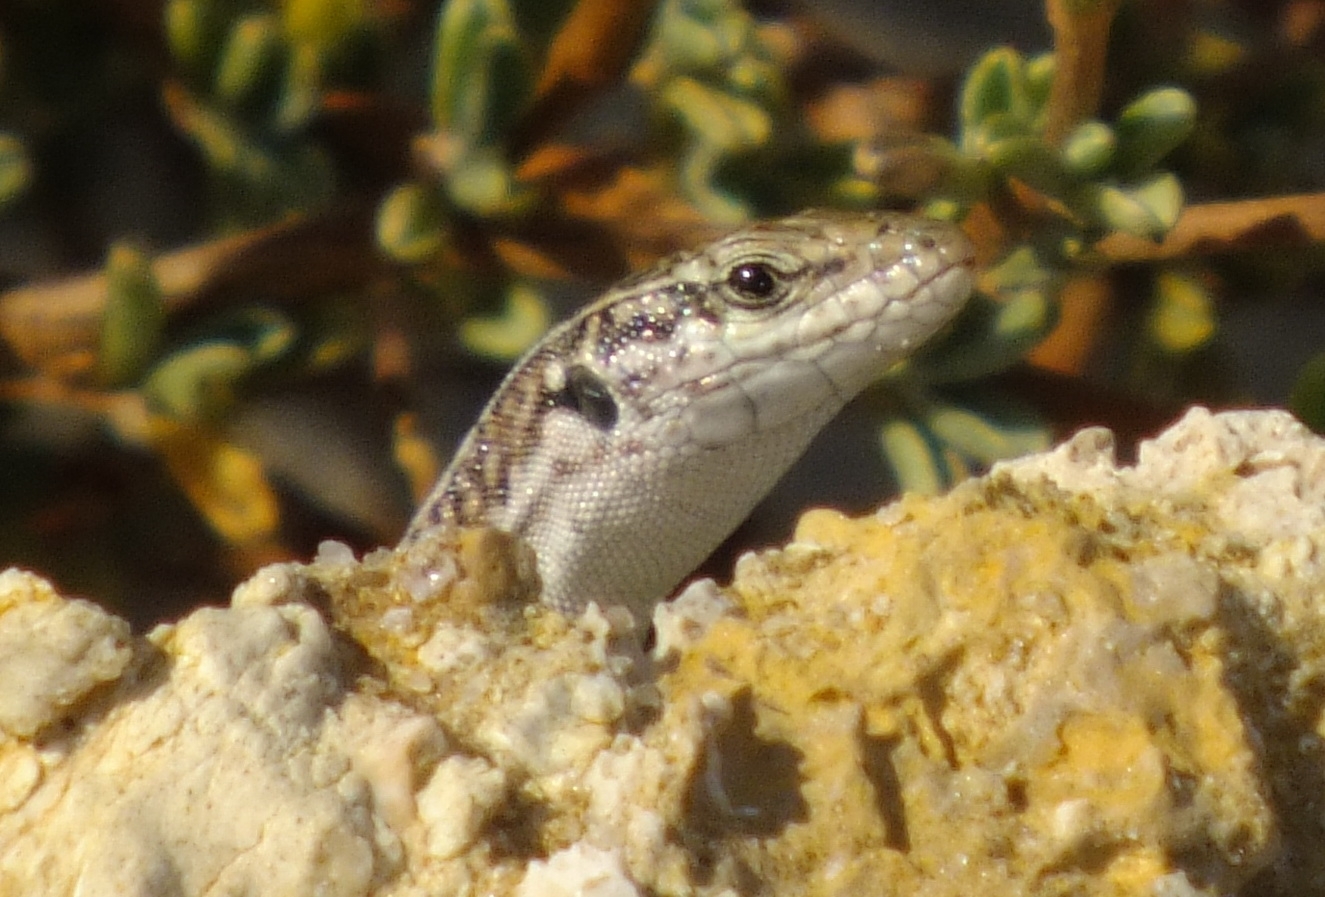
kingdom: Animalia
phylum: Chordata
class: Squamata
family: Lacertidae
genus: Podarcis
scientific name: Podarcis cretensis
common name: Cretan wall lizard
